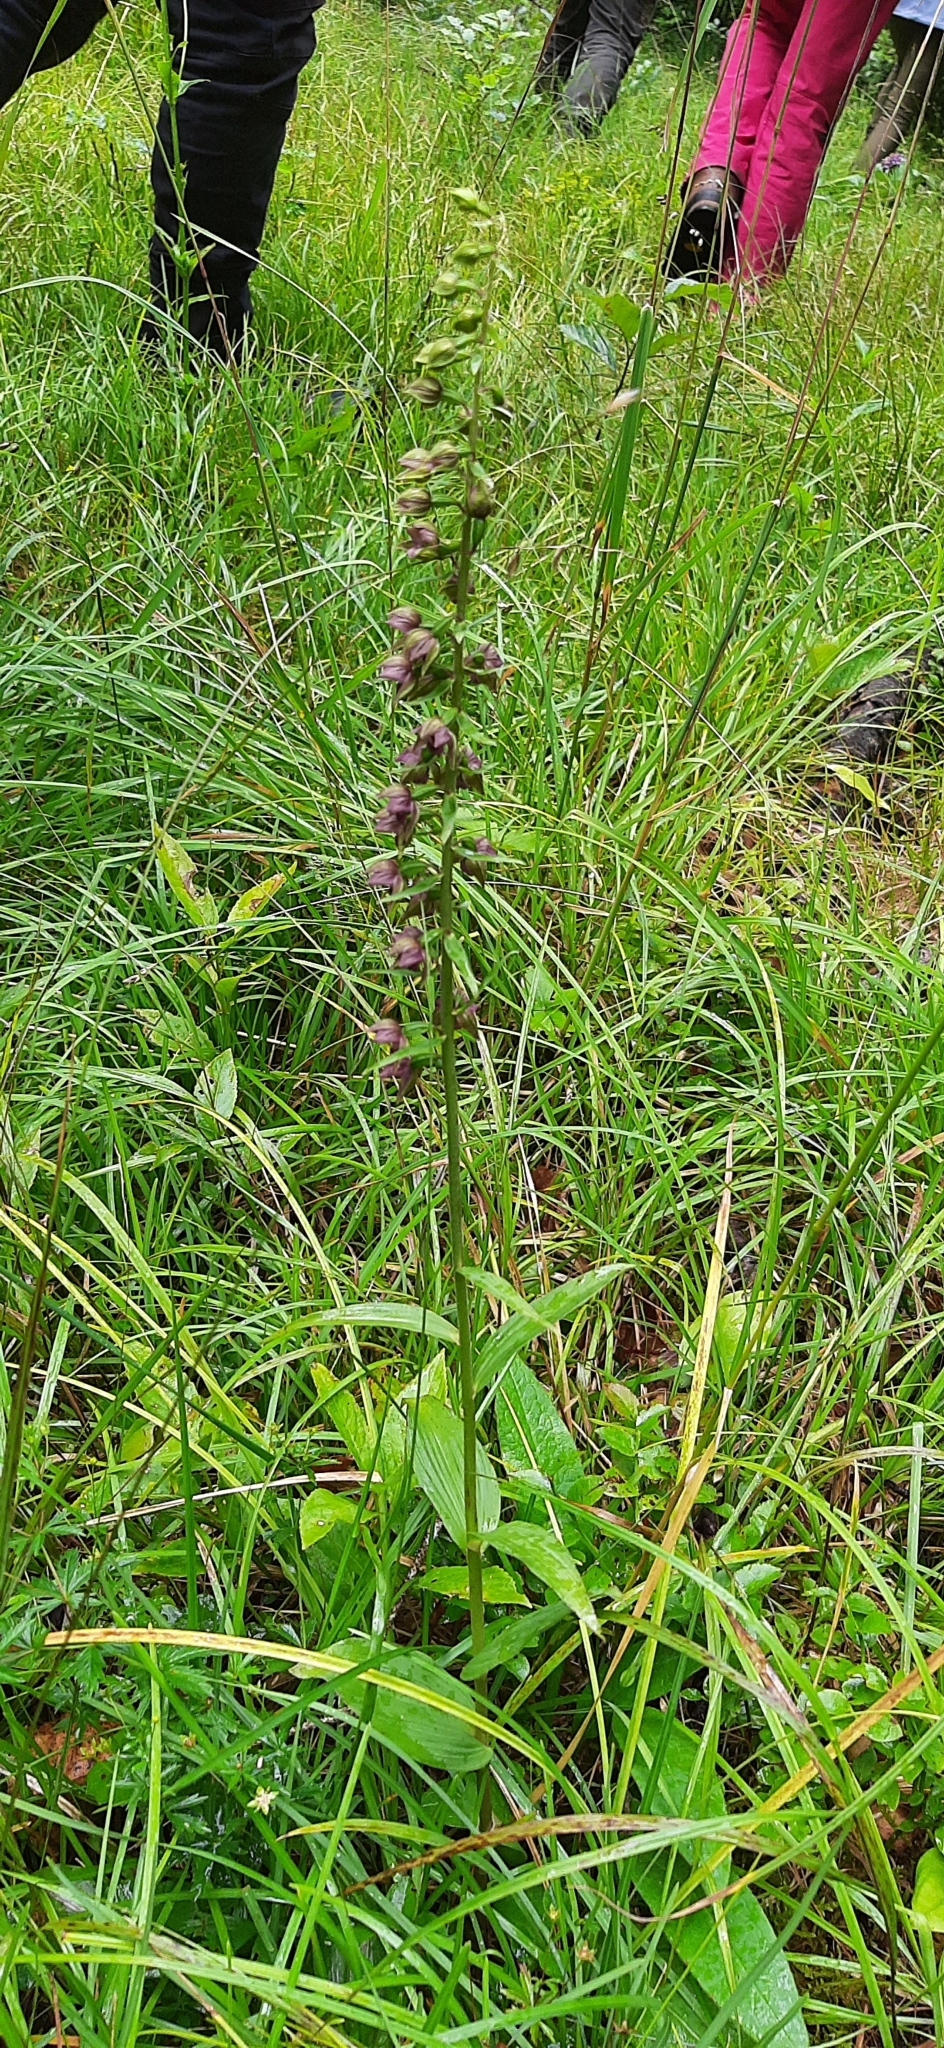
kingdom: Plantae
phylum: Tracheophyta
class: Liliopsida
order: Asparagales
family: Orchidaceae
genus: Epipactis
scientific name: Epipactis atrorubens
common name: Dark-red helleborine
